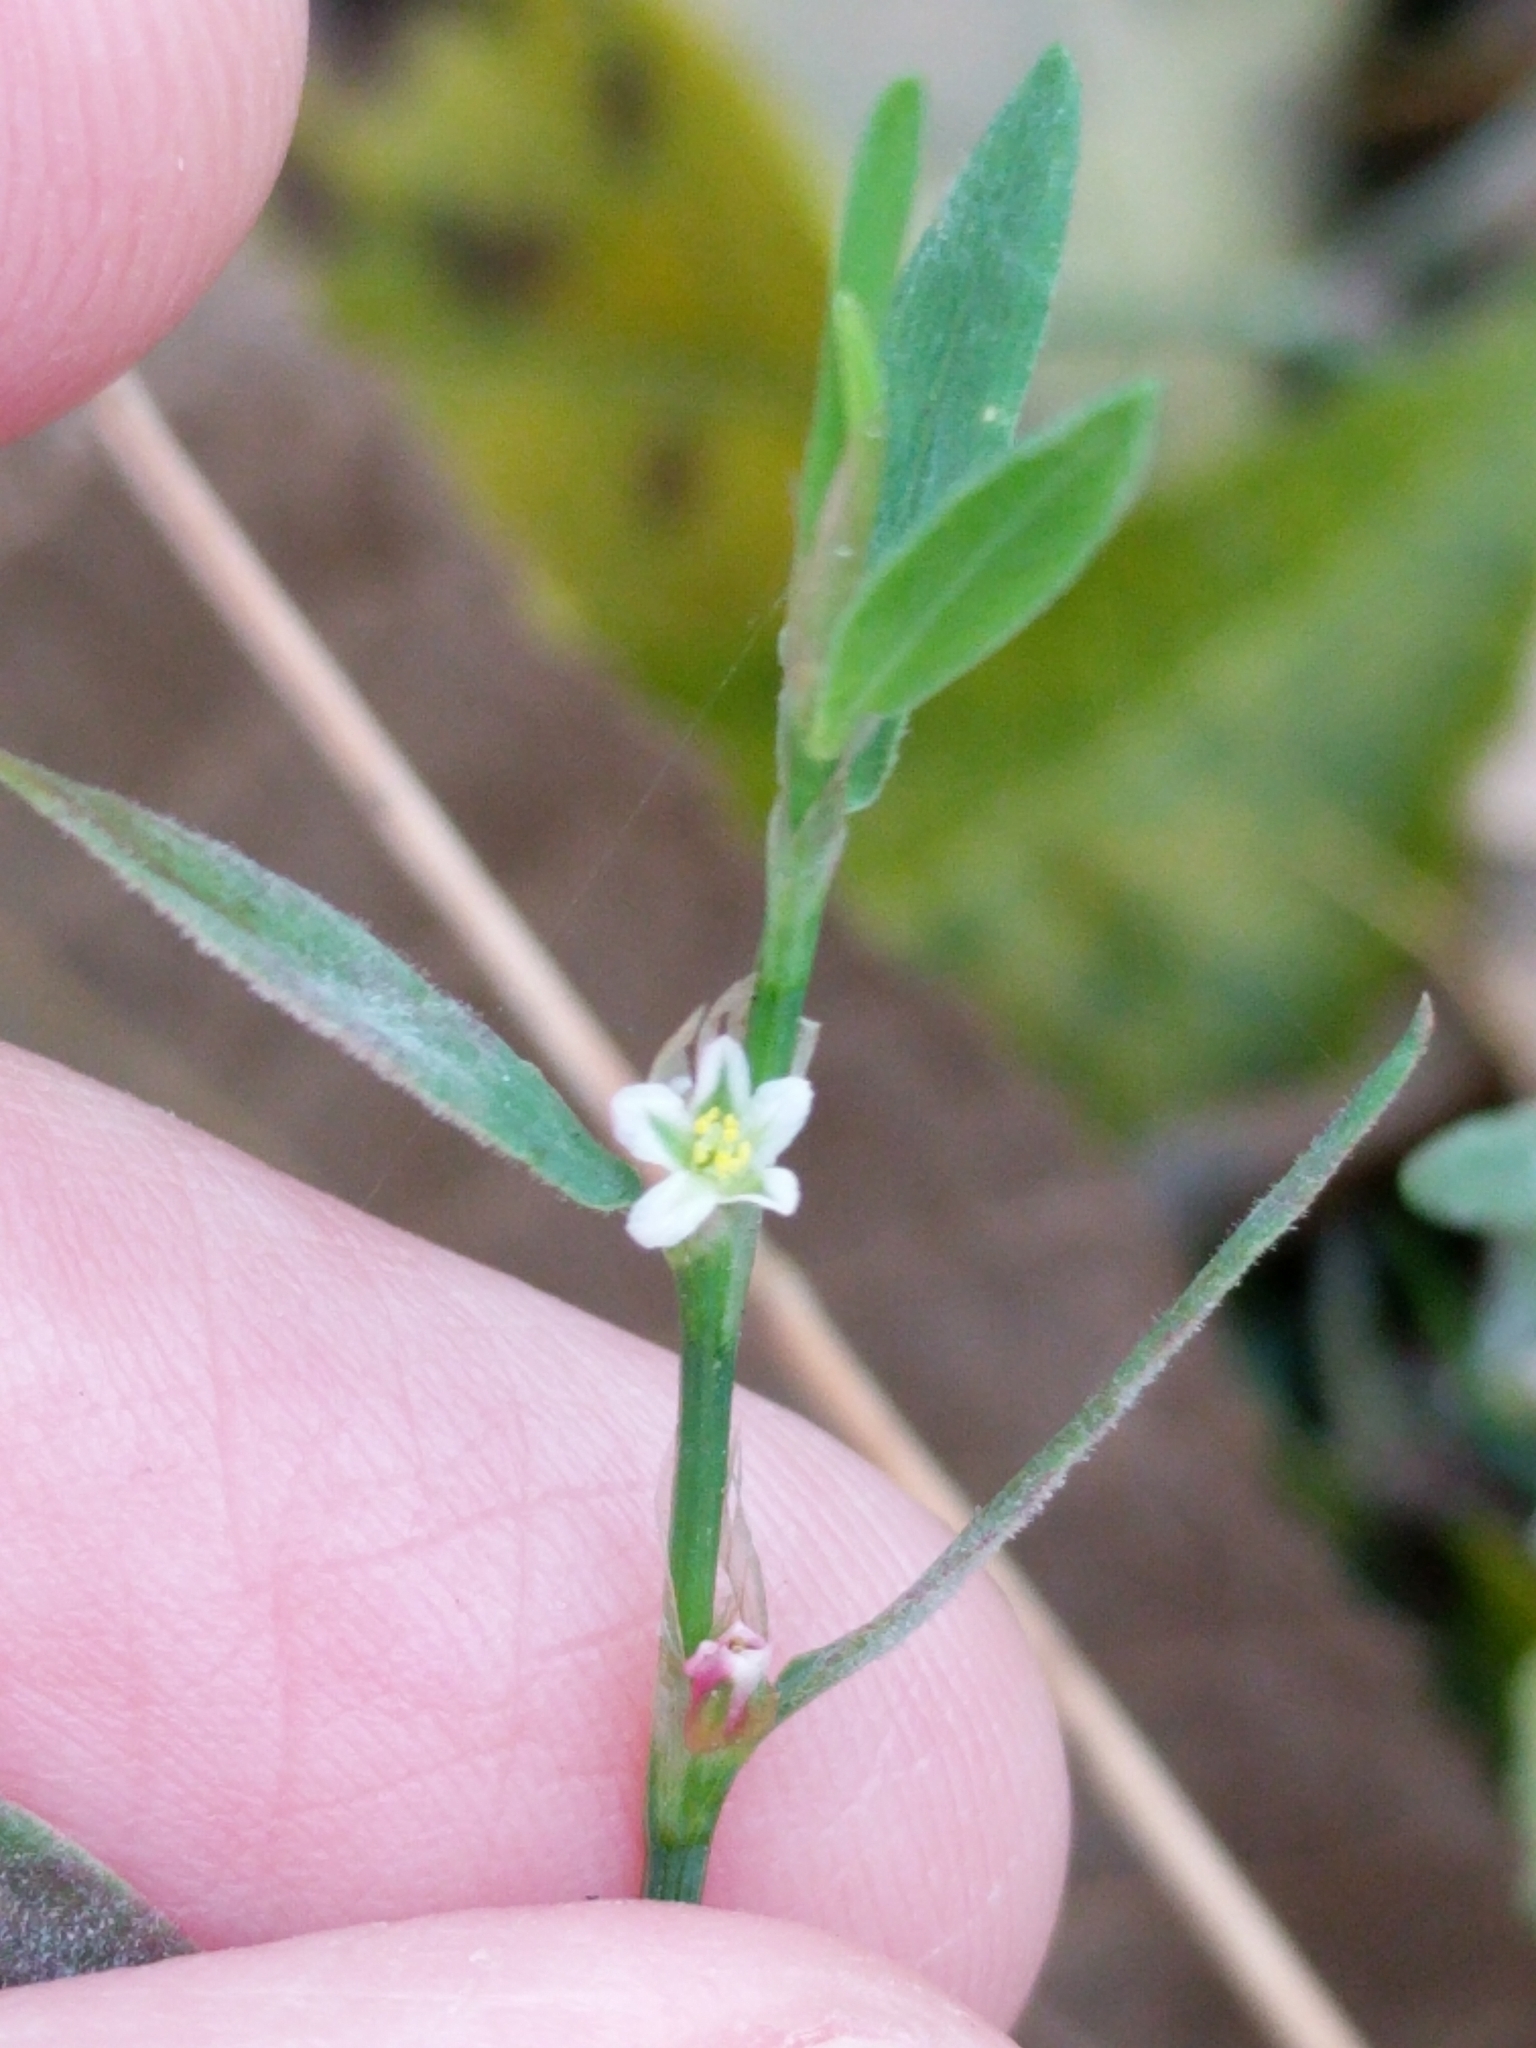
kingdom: Plantae
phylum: Tracheophyta
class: Magnoliopsida
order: Caryophyllales
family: Polygonaceae
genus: Polygonum
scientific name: Polygonum aviculare
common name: Prostrate knotweed
